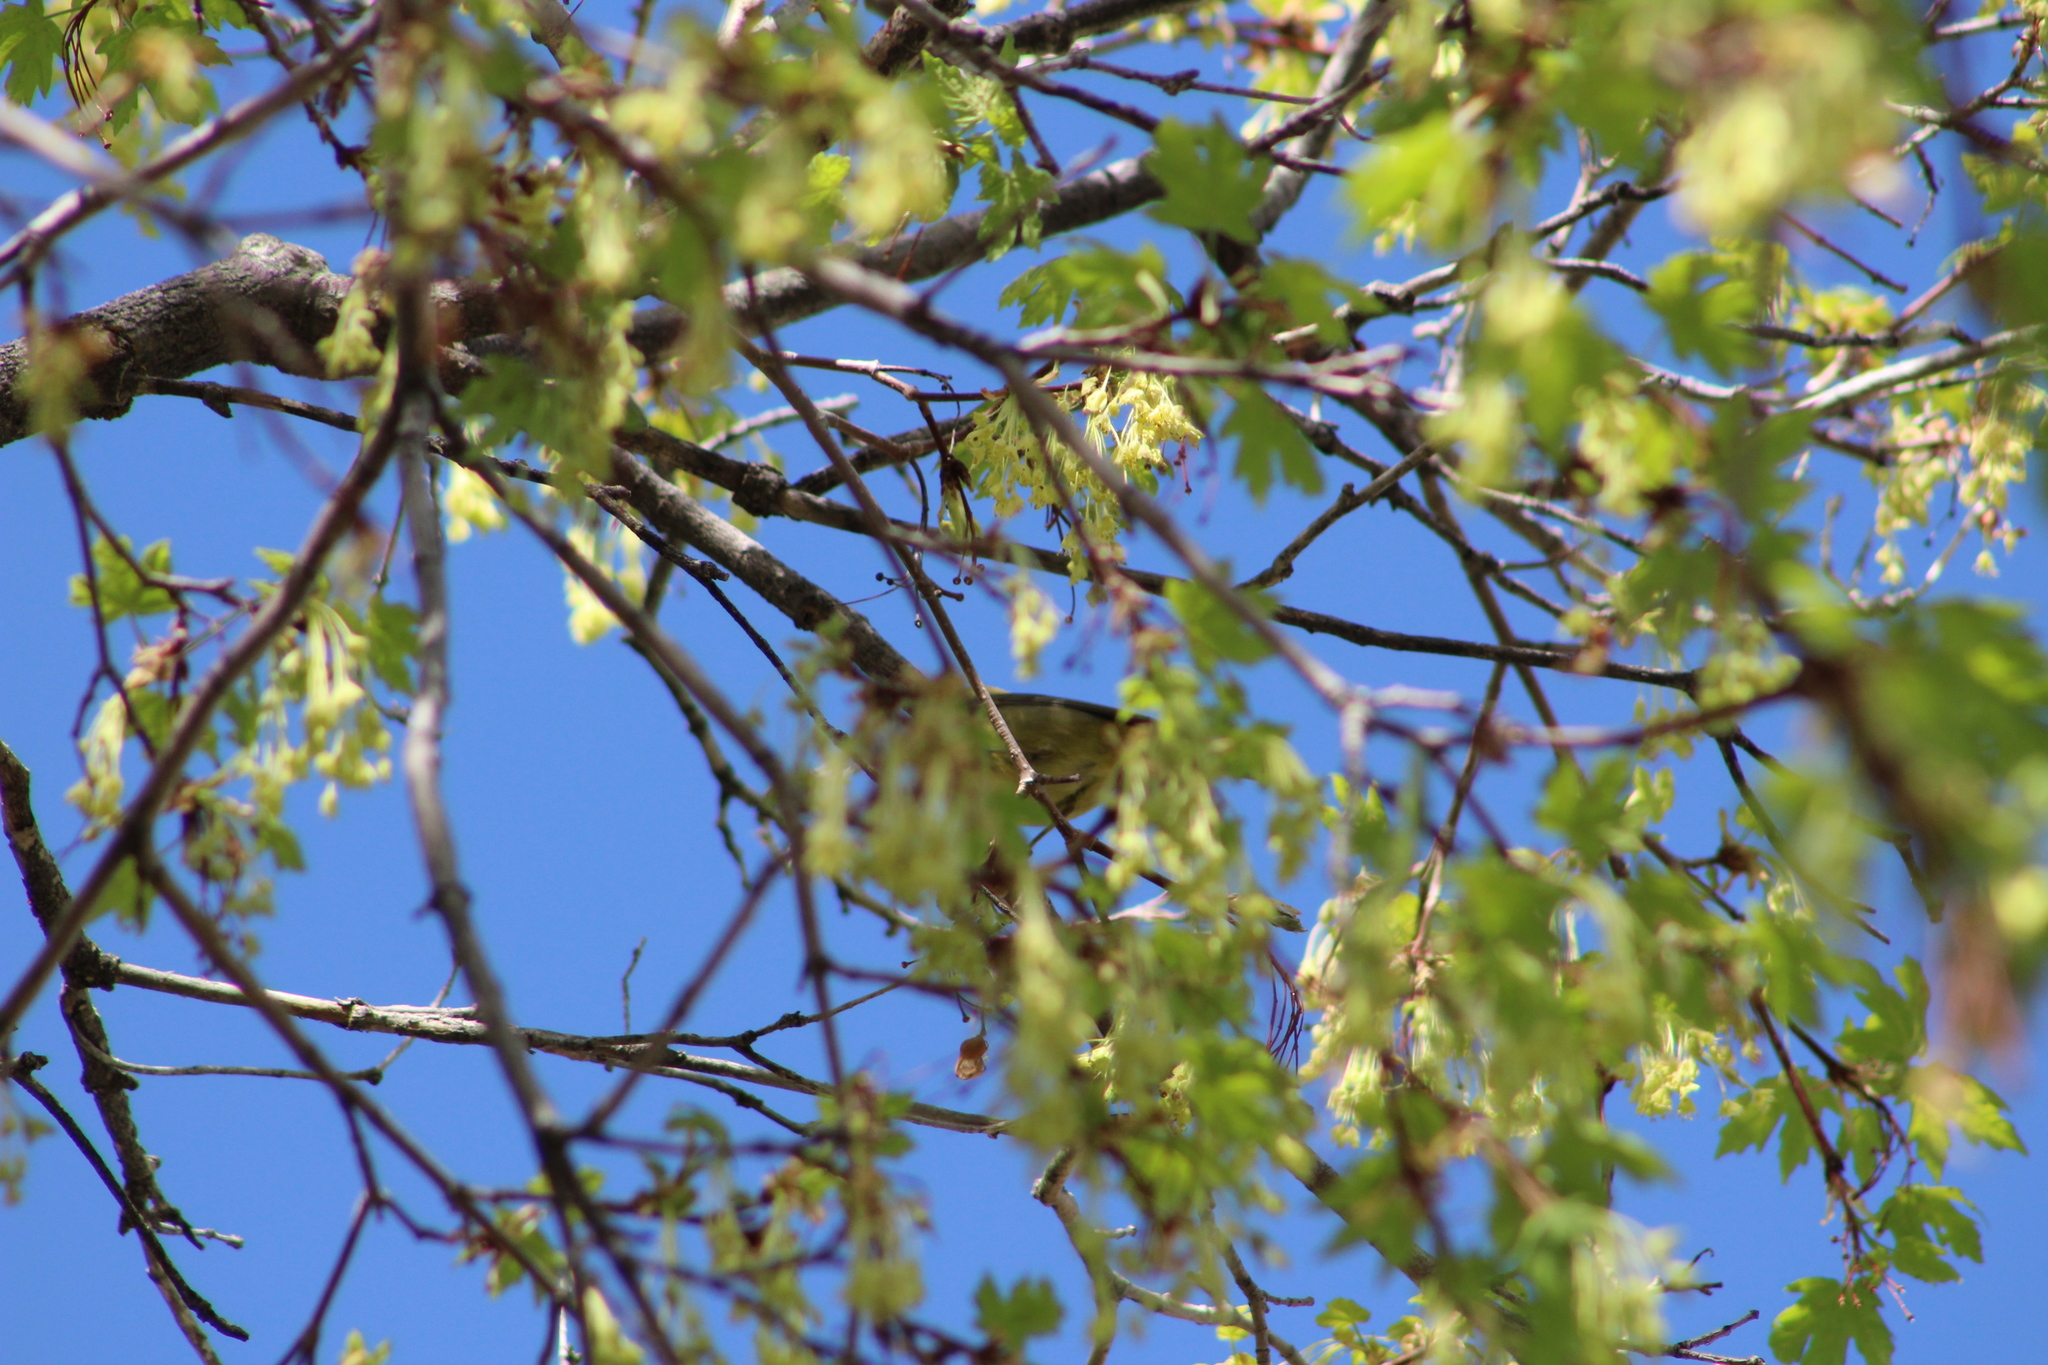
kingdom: Animalia
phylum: Chordata
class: Aves
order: Passeriformes
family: Parulidae
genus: Leiothlypis
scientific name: Leiothlypis celata
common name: Orange-crowned warbler
